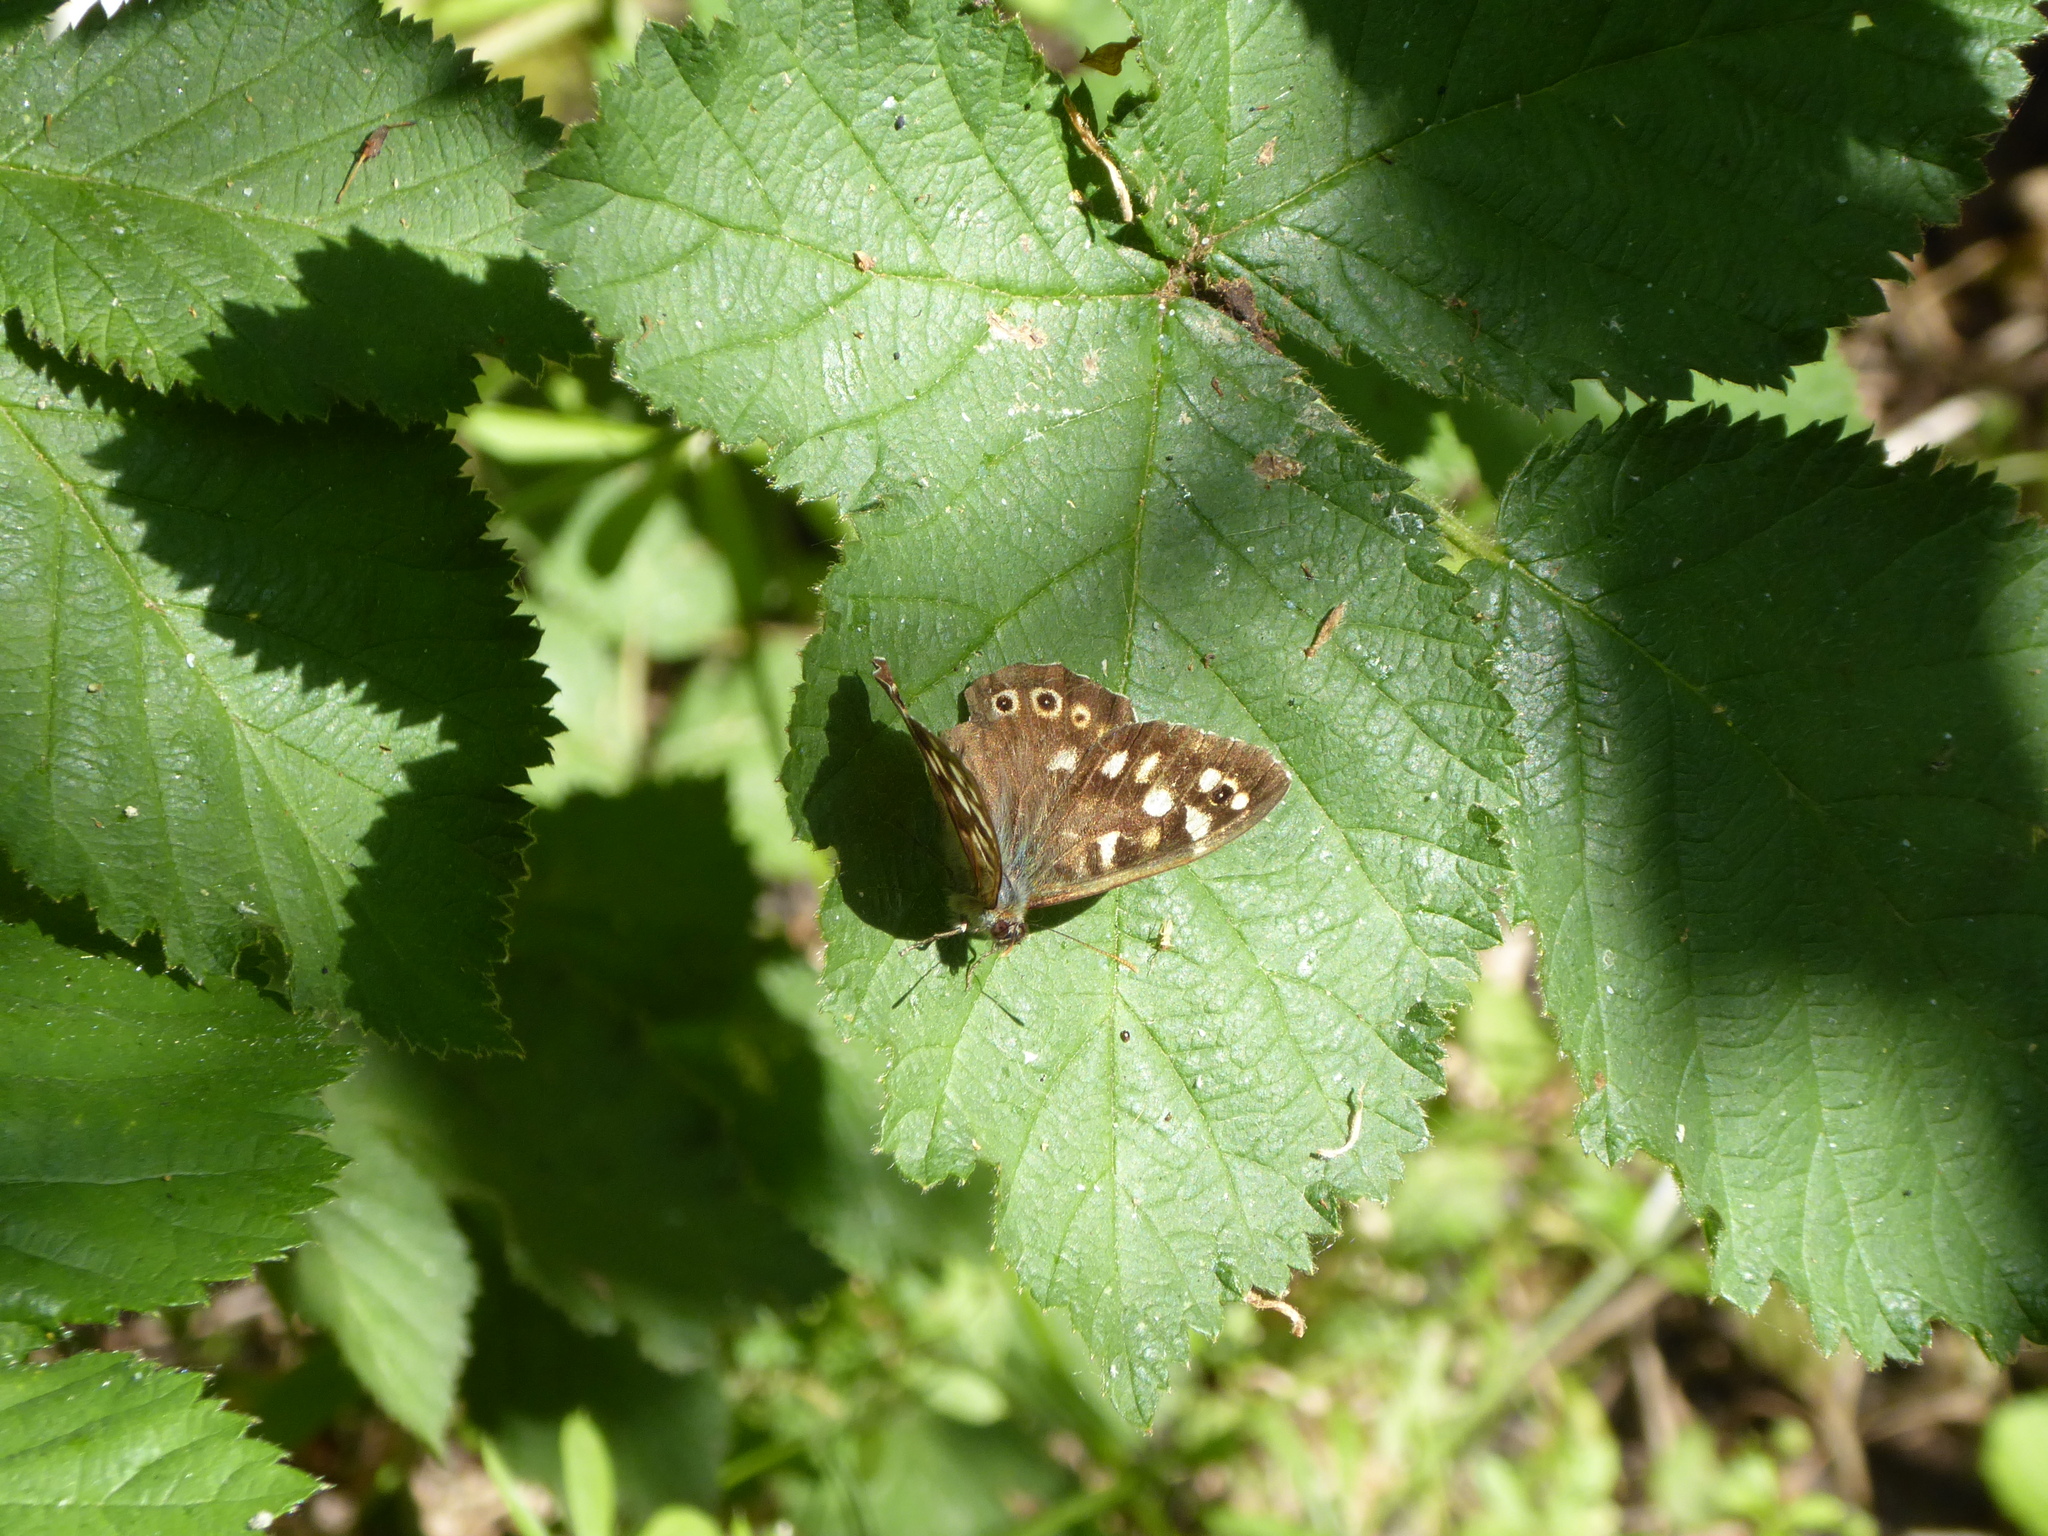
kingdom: Animalia
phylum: Arthropoda
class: Insecta
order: Lepidoptera
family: Nymphalidae
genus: Pararge
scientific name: Pararge aegeria
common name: Speckled wood
